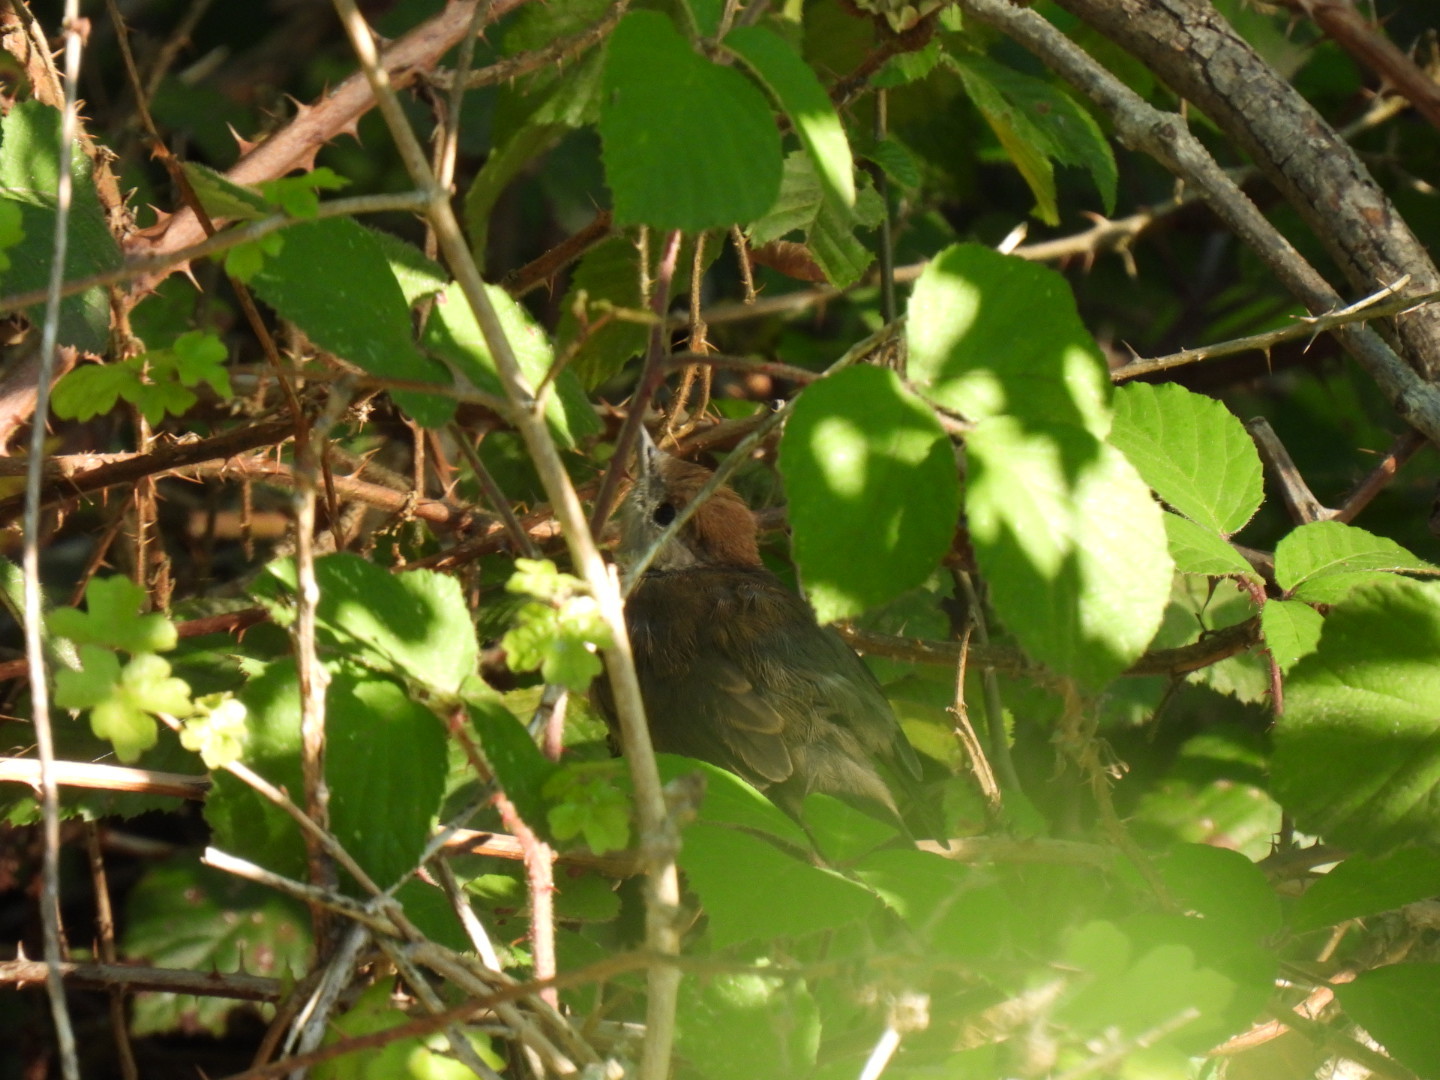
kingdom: Animalia
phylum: Chordata
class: Aves
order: Passeriformes
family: Sylviidae
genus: Sylvia
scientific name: Sylvia atricapilla
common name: Eurasian blackcap
